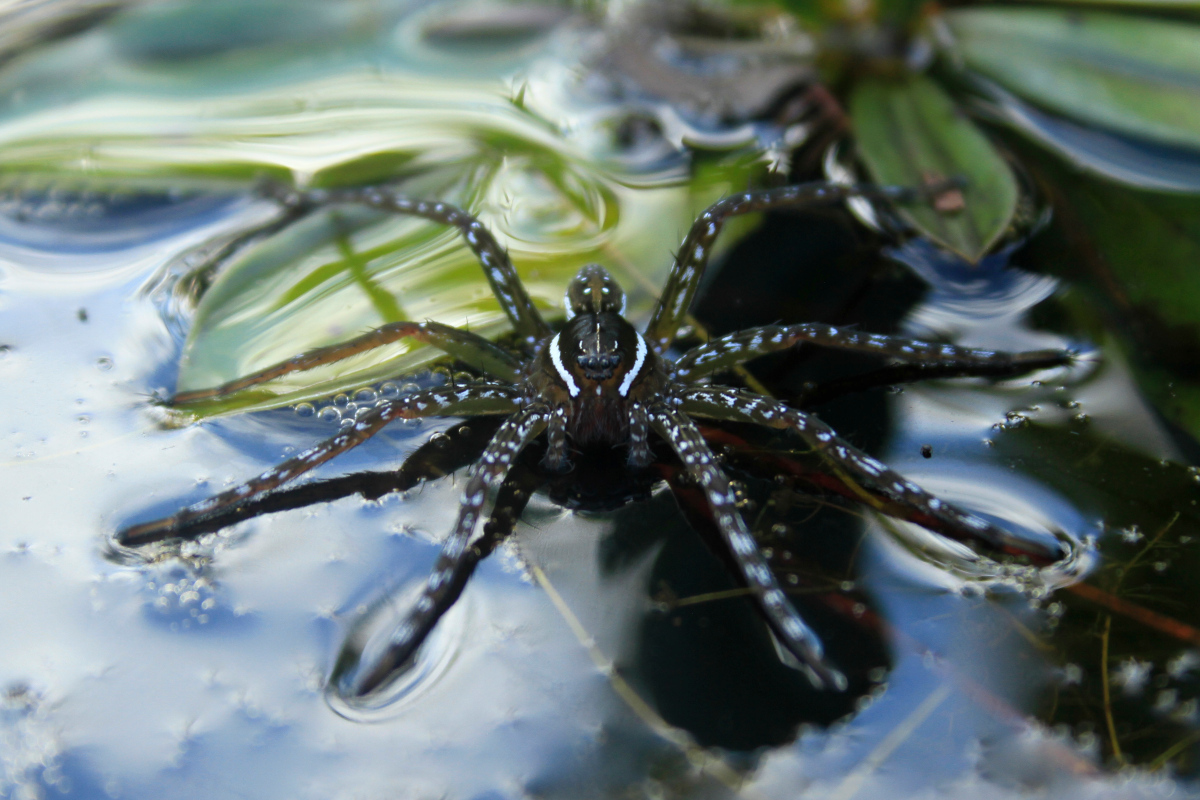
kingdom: Animalia
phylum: Arthropoda
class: Arachnida
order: Araneae
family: Pisauridae
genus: Dolomedes
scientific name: Dolomedes triton
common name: Six-spotted fishing spider
